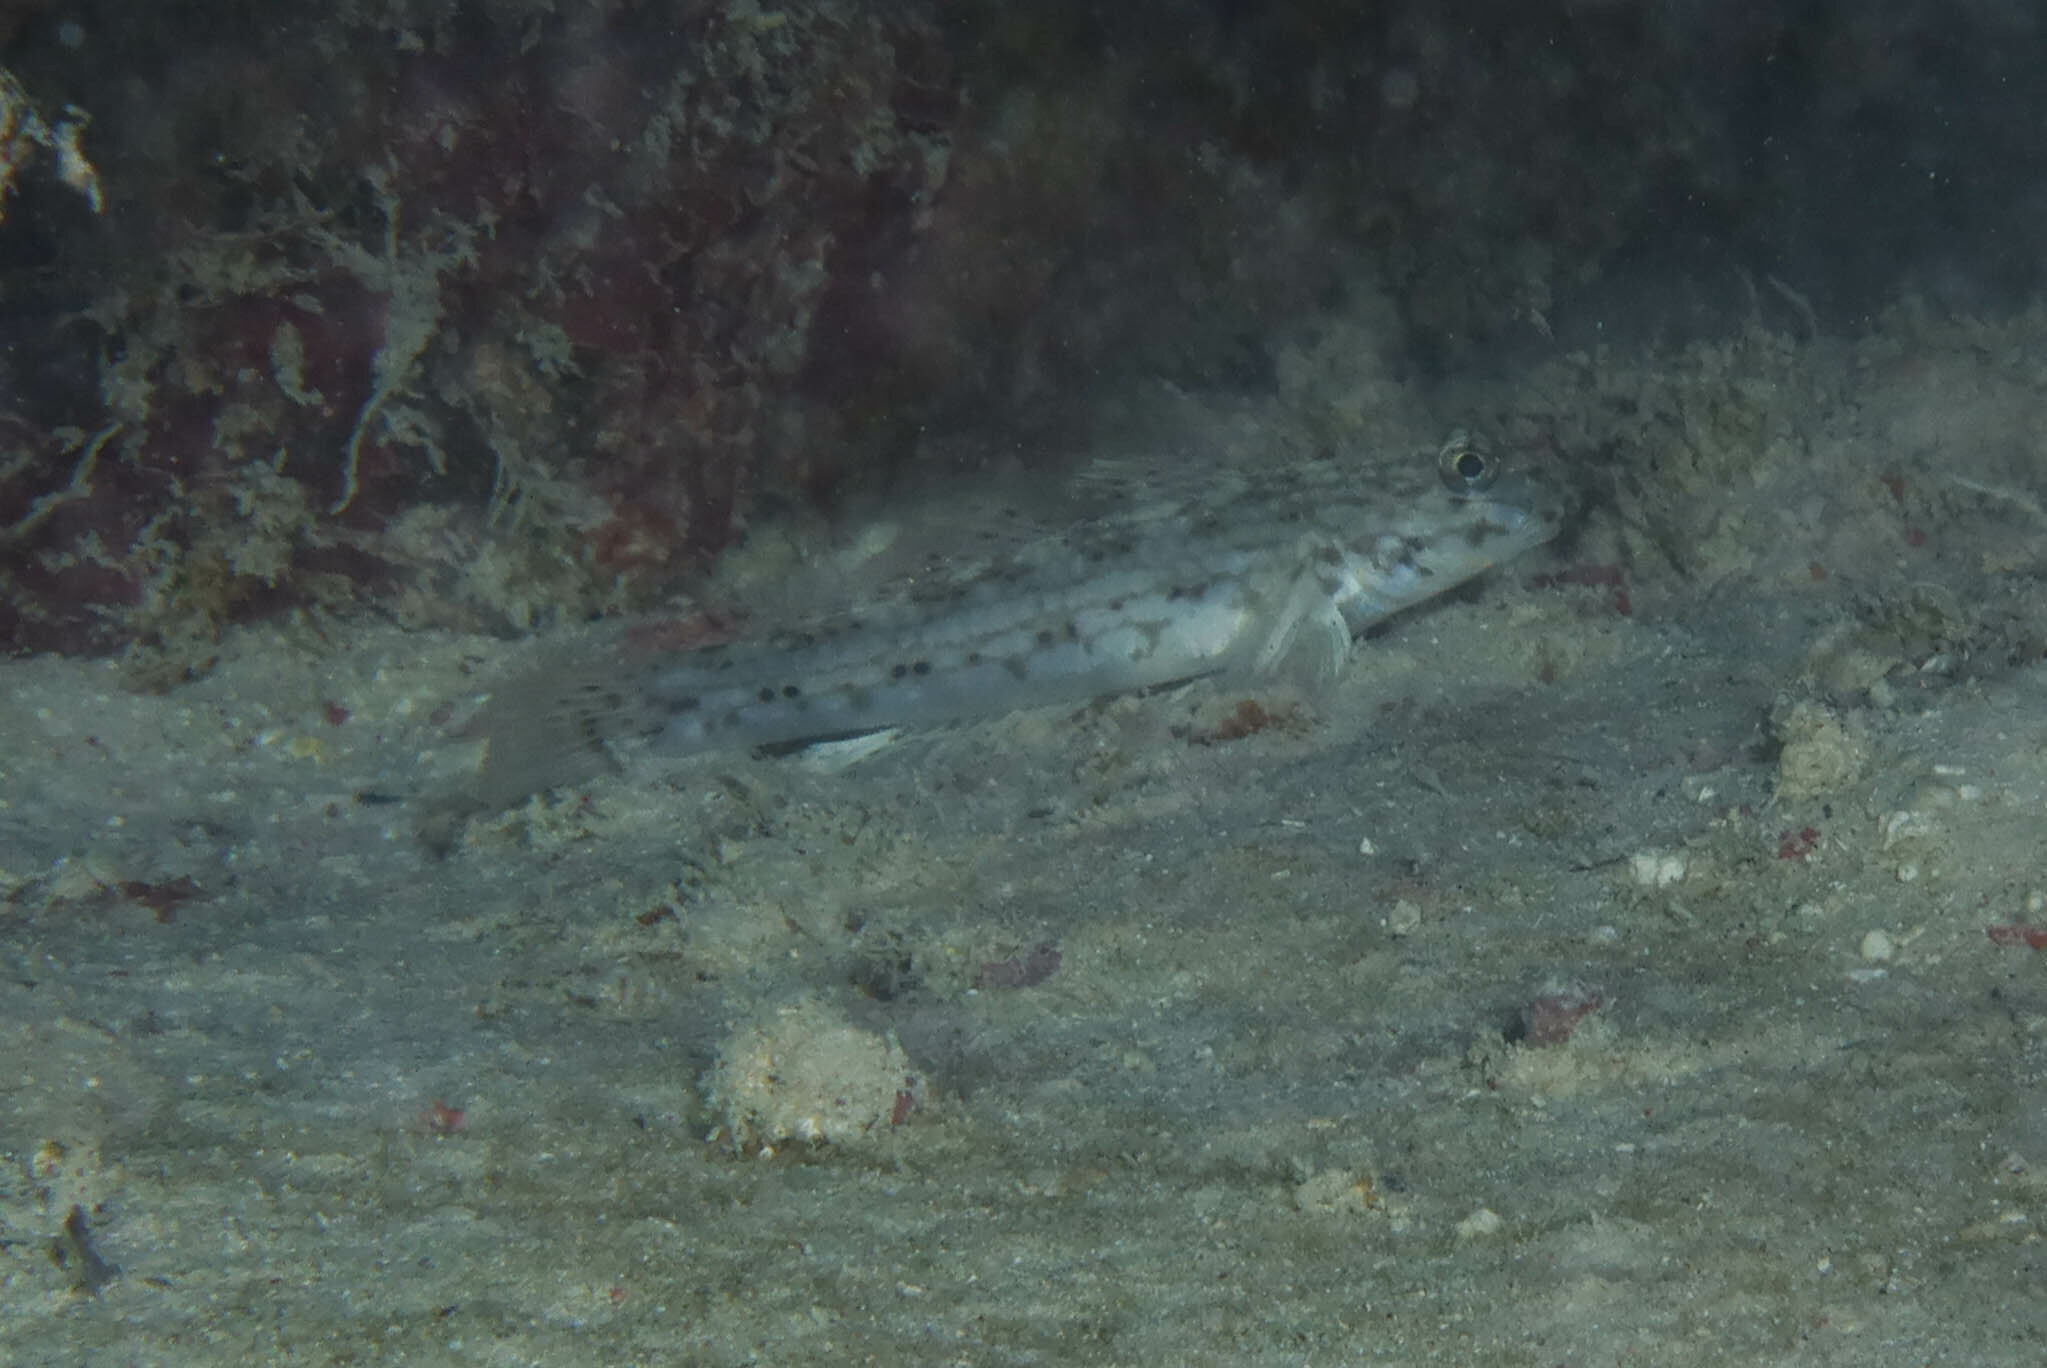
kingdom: Animalia
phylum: Chordata
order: Perciformes
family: Gobiidae
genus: Istigobius
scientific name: Istigobius decoratus
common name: Decorated goby
